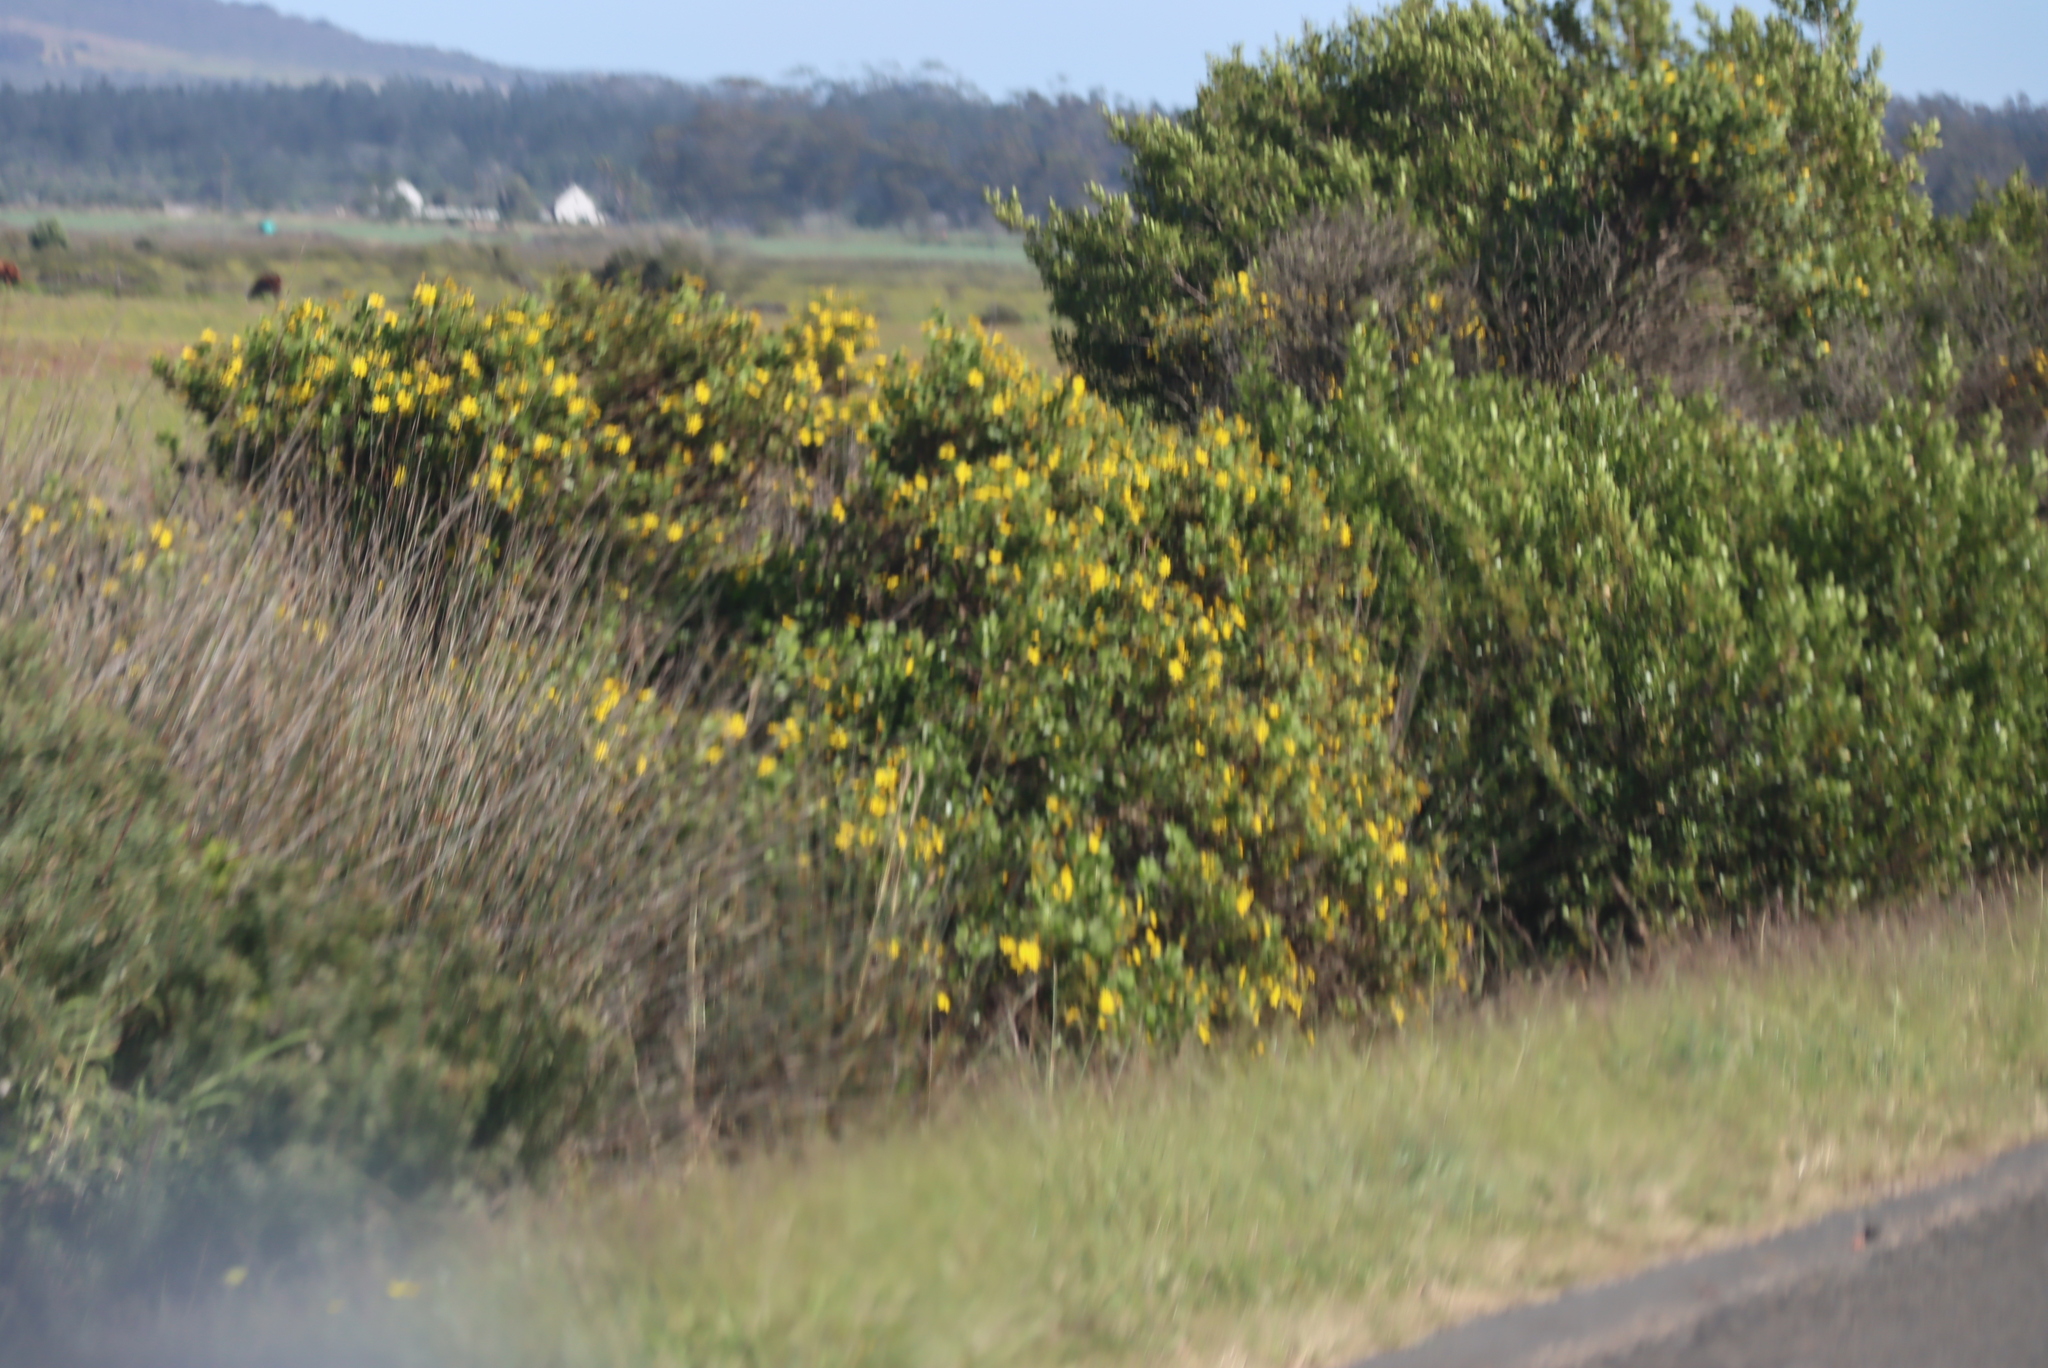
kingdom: Plantae
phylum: Tracheophyta
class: Magnoliopsida
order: Asterales
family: Asteraceae
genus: Osteospermum
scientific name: Osteospermum moniliferum
